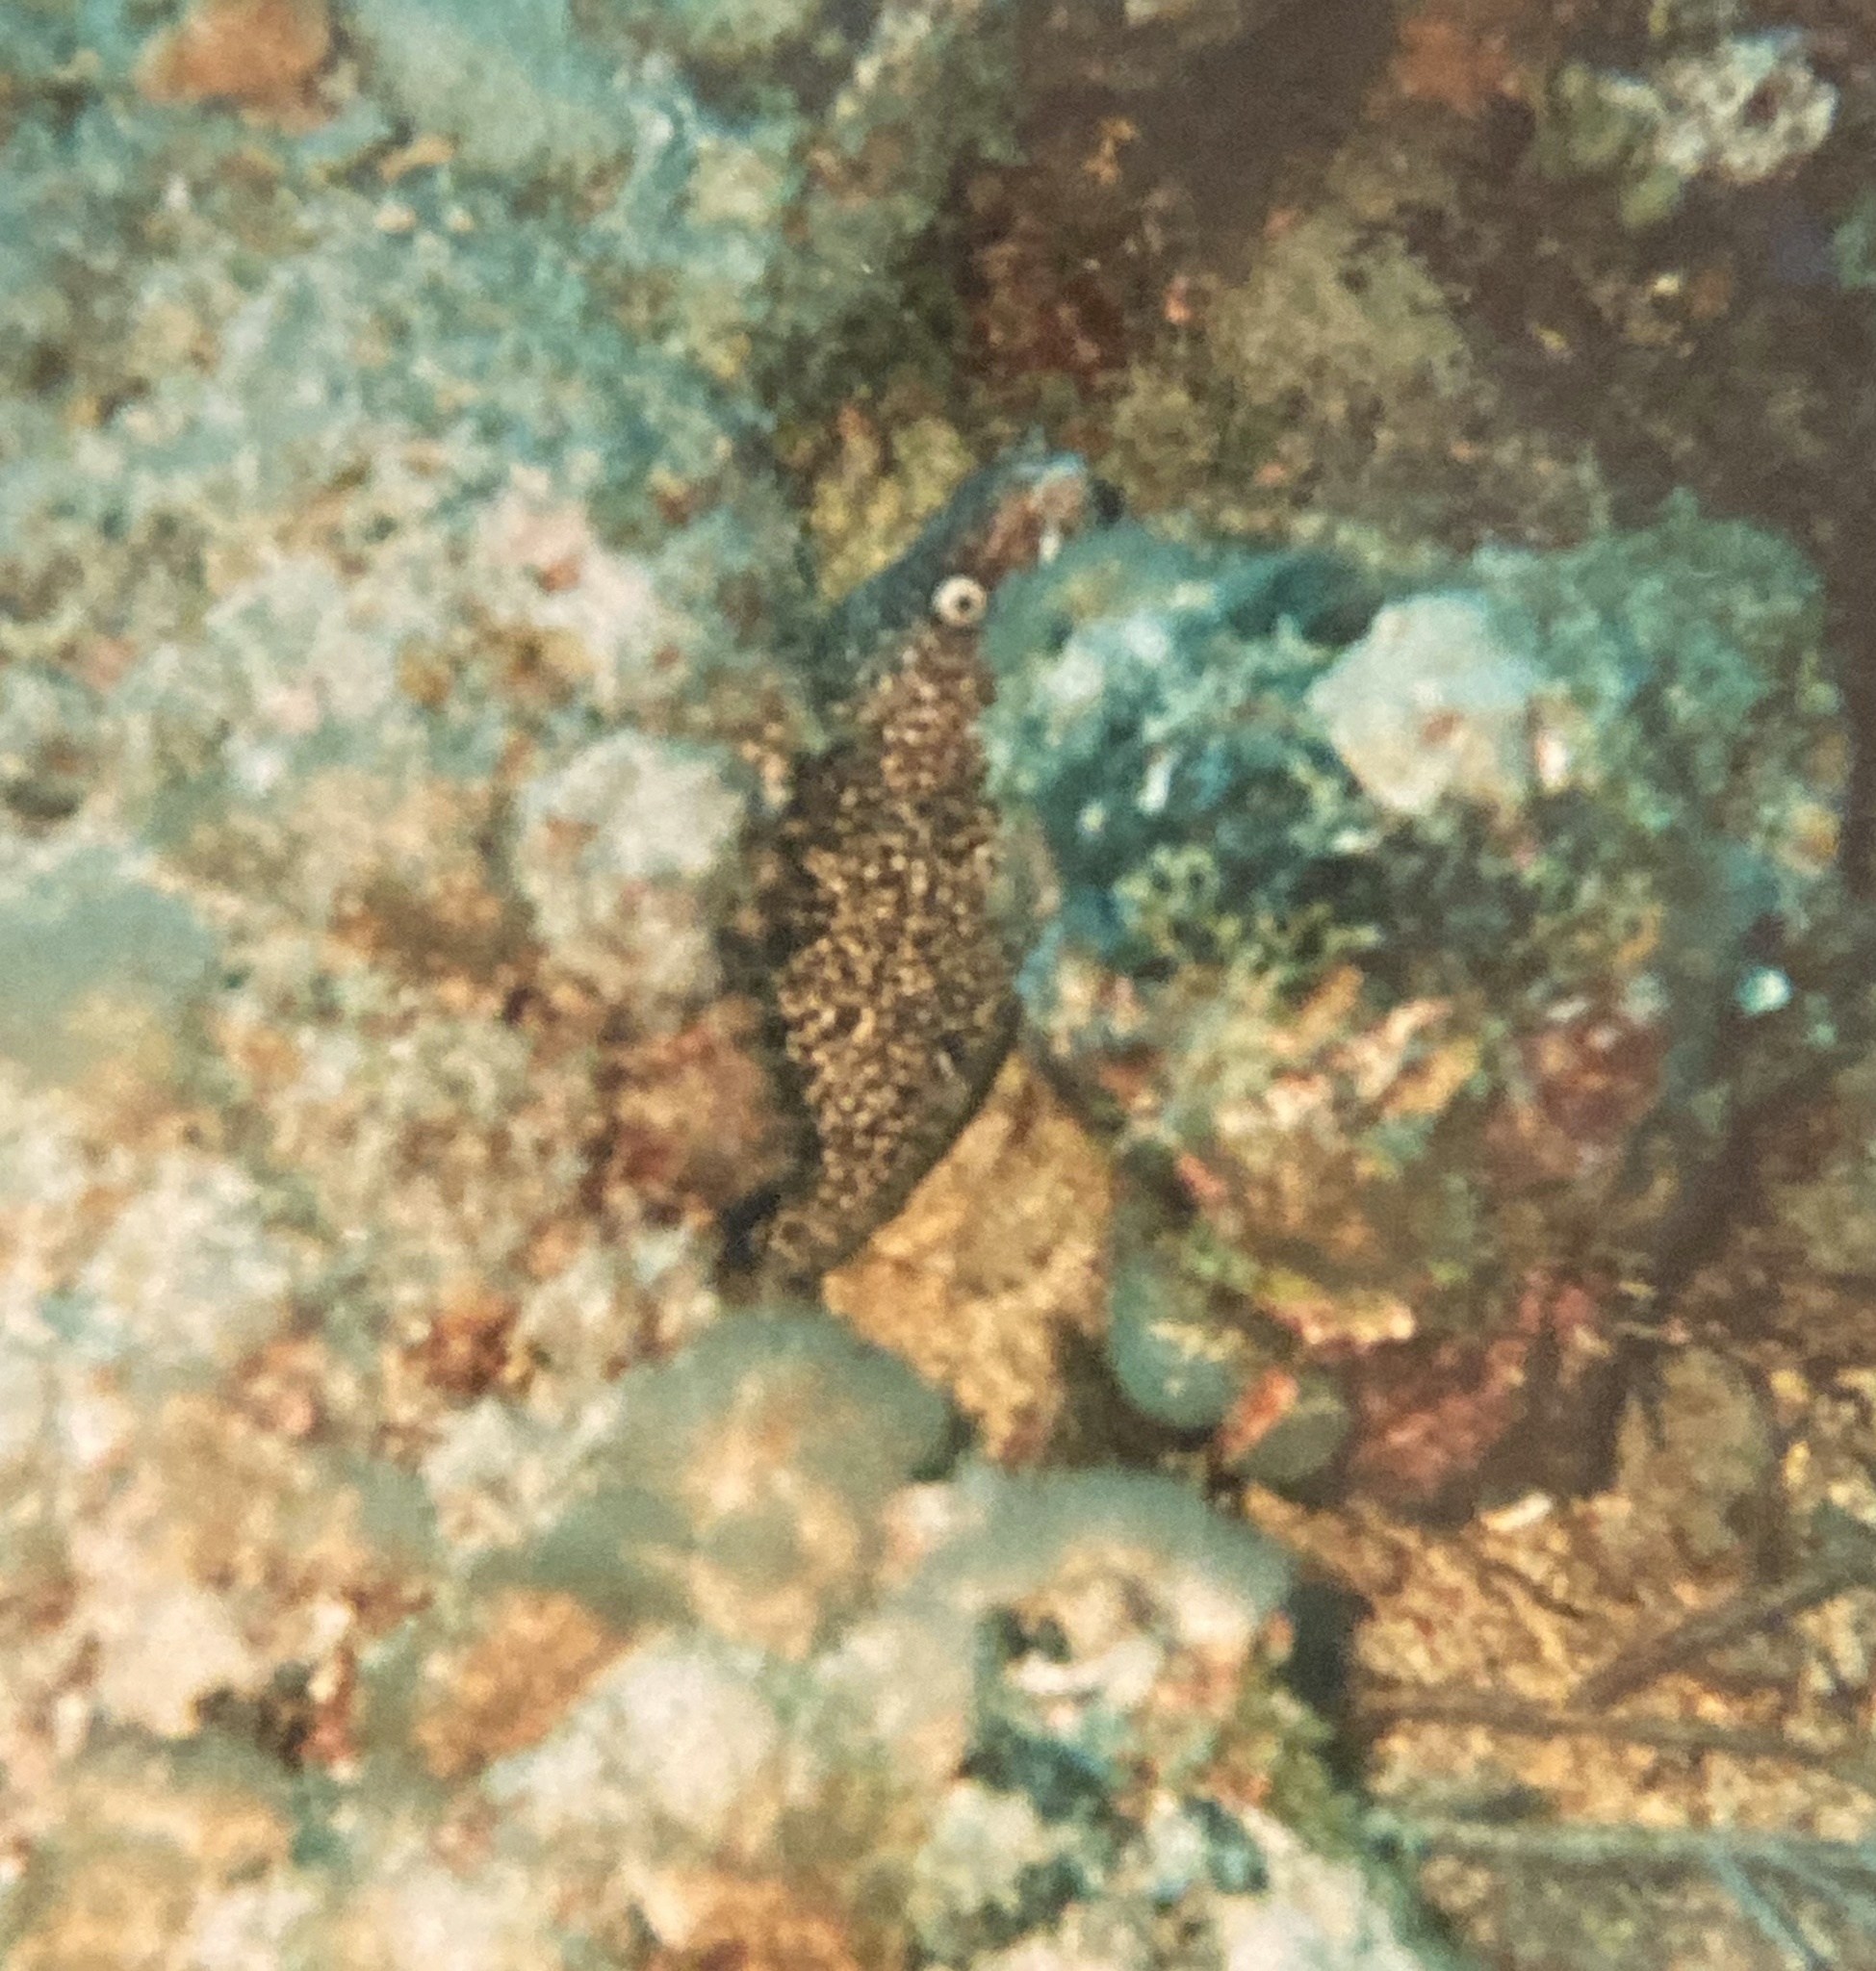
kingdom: Animalia
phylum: Chordata
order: Anguilliformes
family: Muraenidae
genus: Gymnothorax
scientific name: Gymnothorax moringa
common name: Spotted moray
